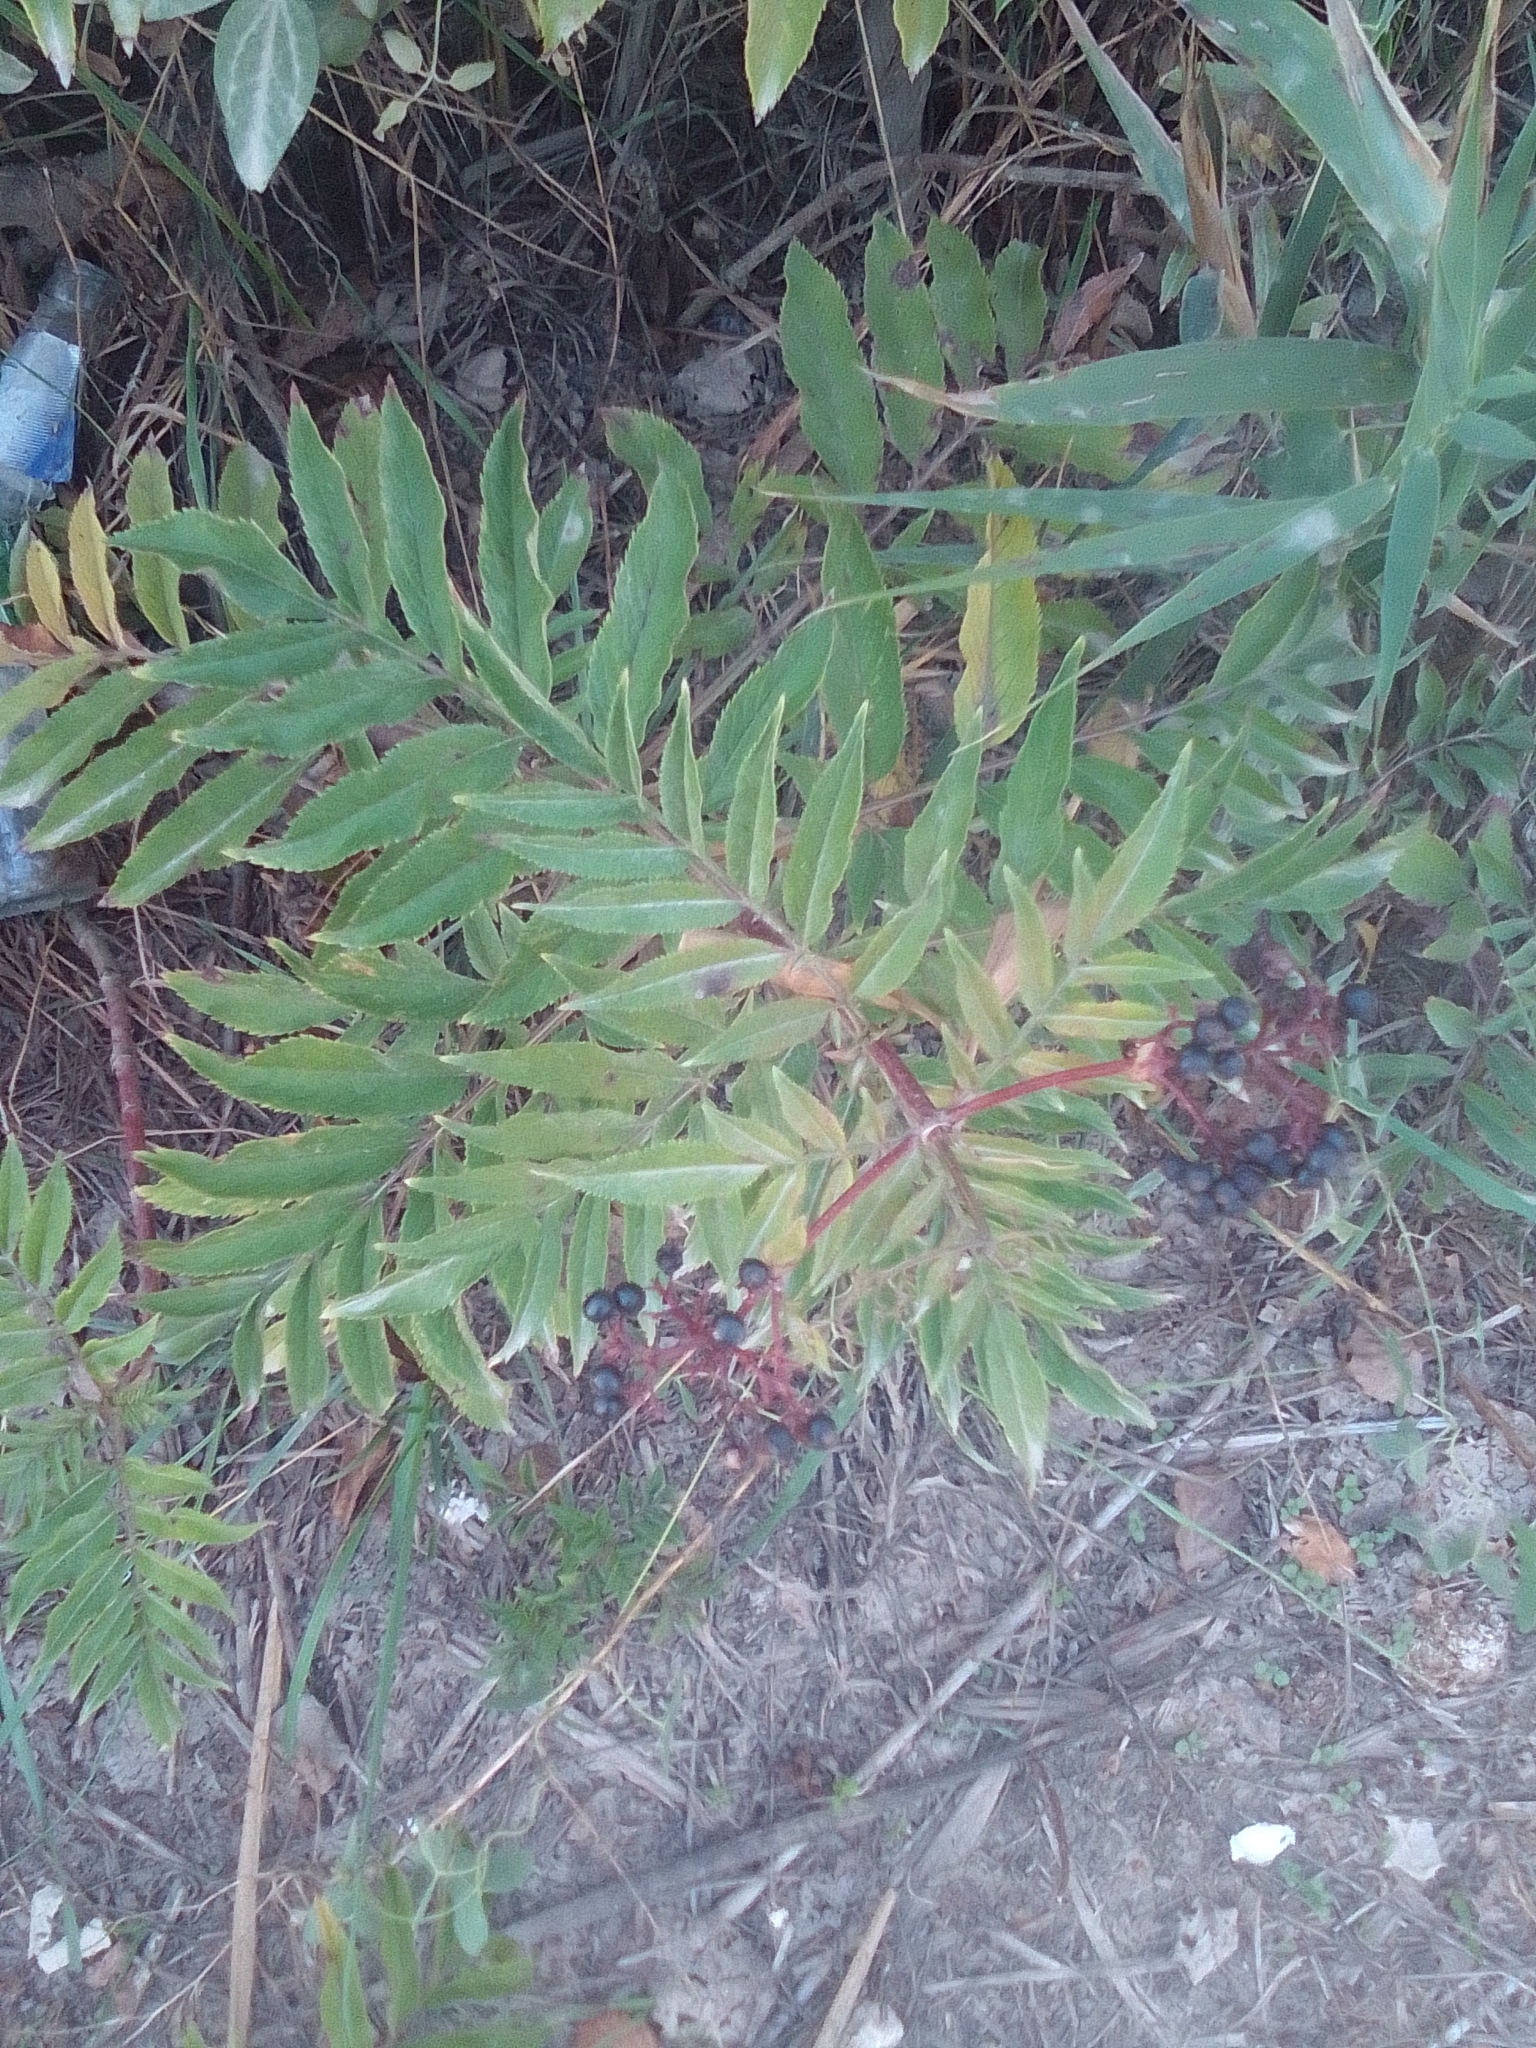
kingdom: Plantae
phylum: Tracheophyta
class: Magnoliopsida
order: Dipsacales
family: Viburnaceae
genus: Sambucus
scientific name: Sambucus ebulus
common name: Dwarf elder
